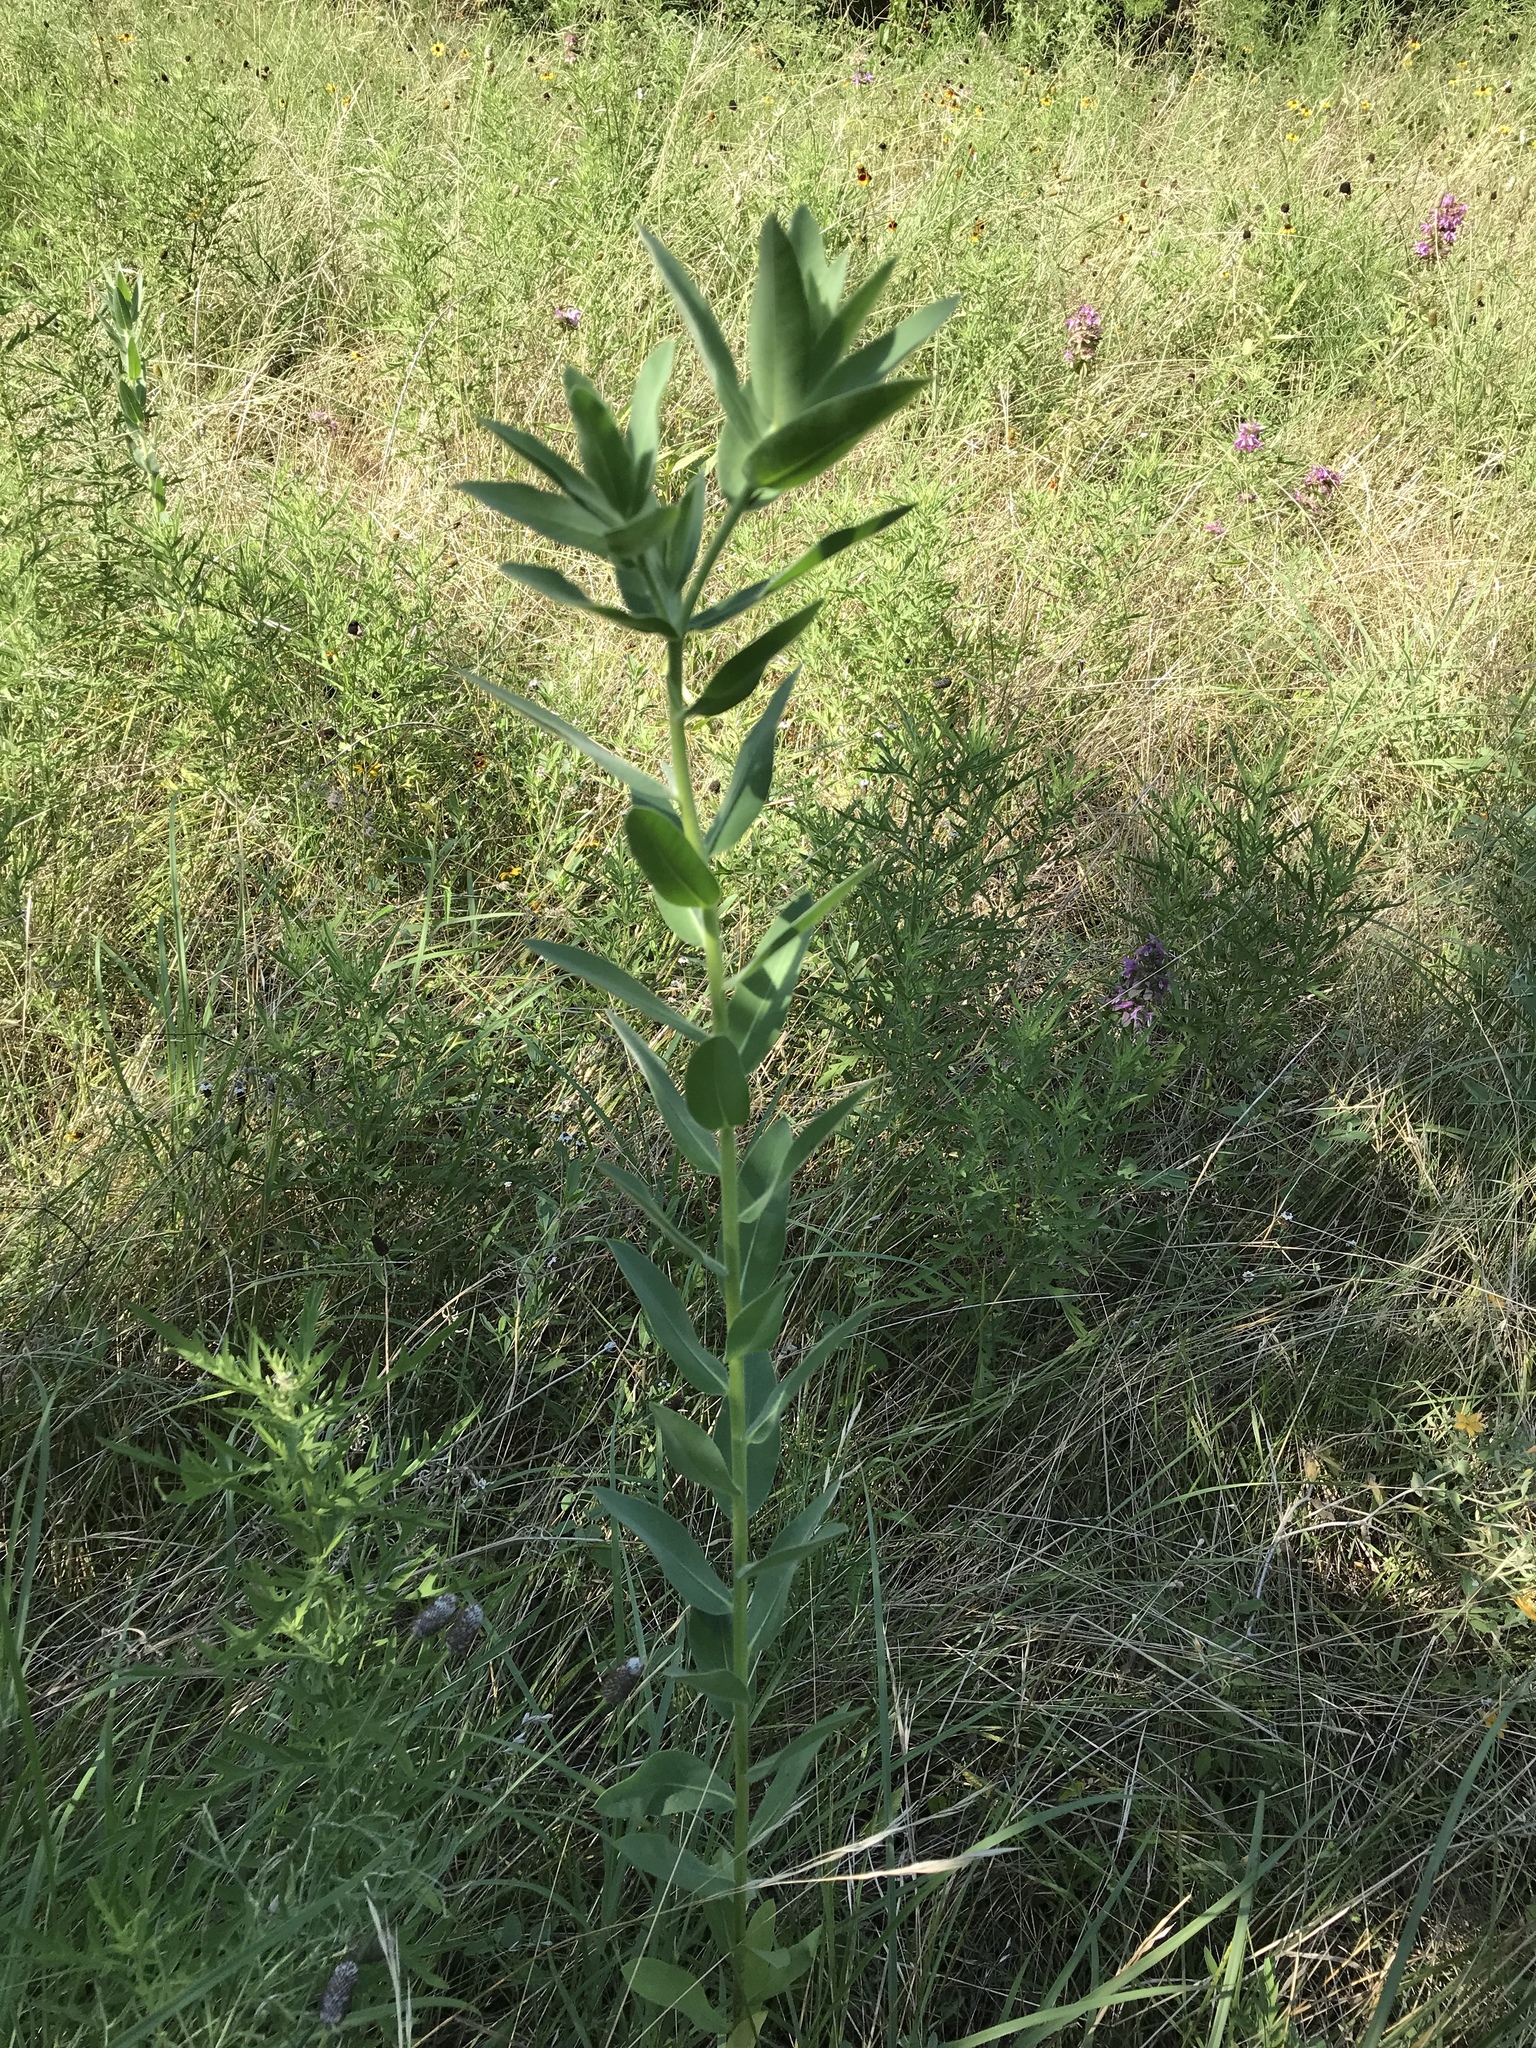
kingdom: Plantae
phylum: Tracheophyta
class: Magnoliopsida
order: Malpighiales
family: Euphorbiaceae
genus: Euphorbia
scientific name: Euphorbia bicolor
